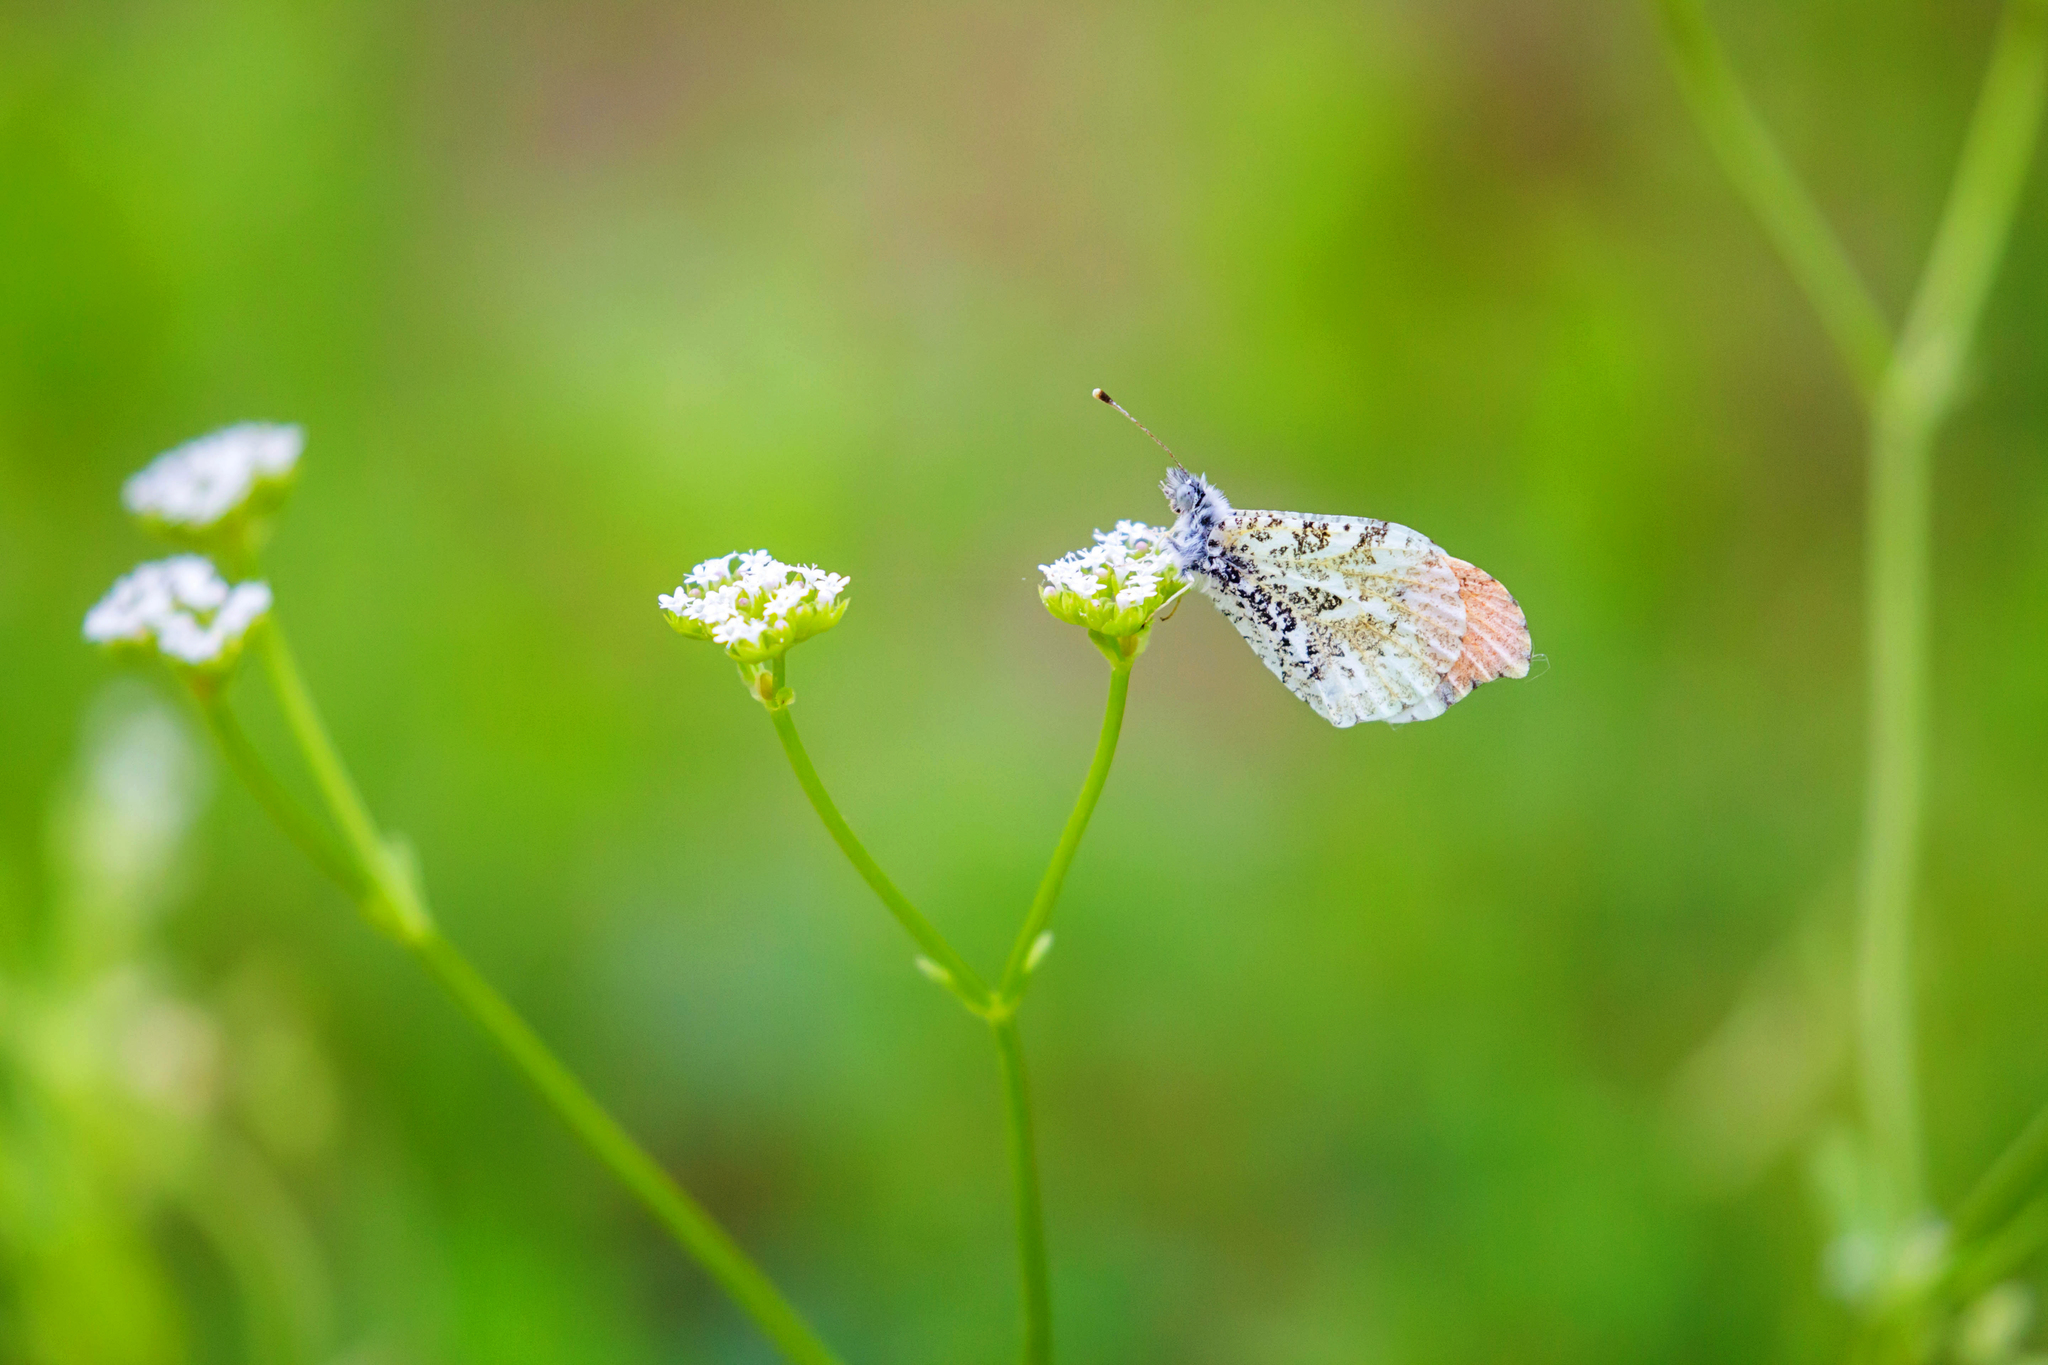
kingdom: Animalia
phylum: Arthropoda
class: Insecta
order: Lepidoptera
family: Pieridae
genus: Anthocharis
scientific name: Anthocharis midea
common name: Falcate orangetip
